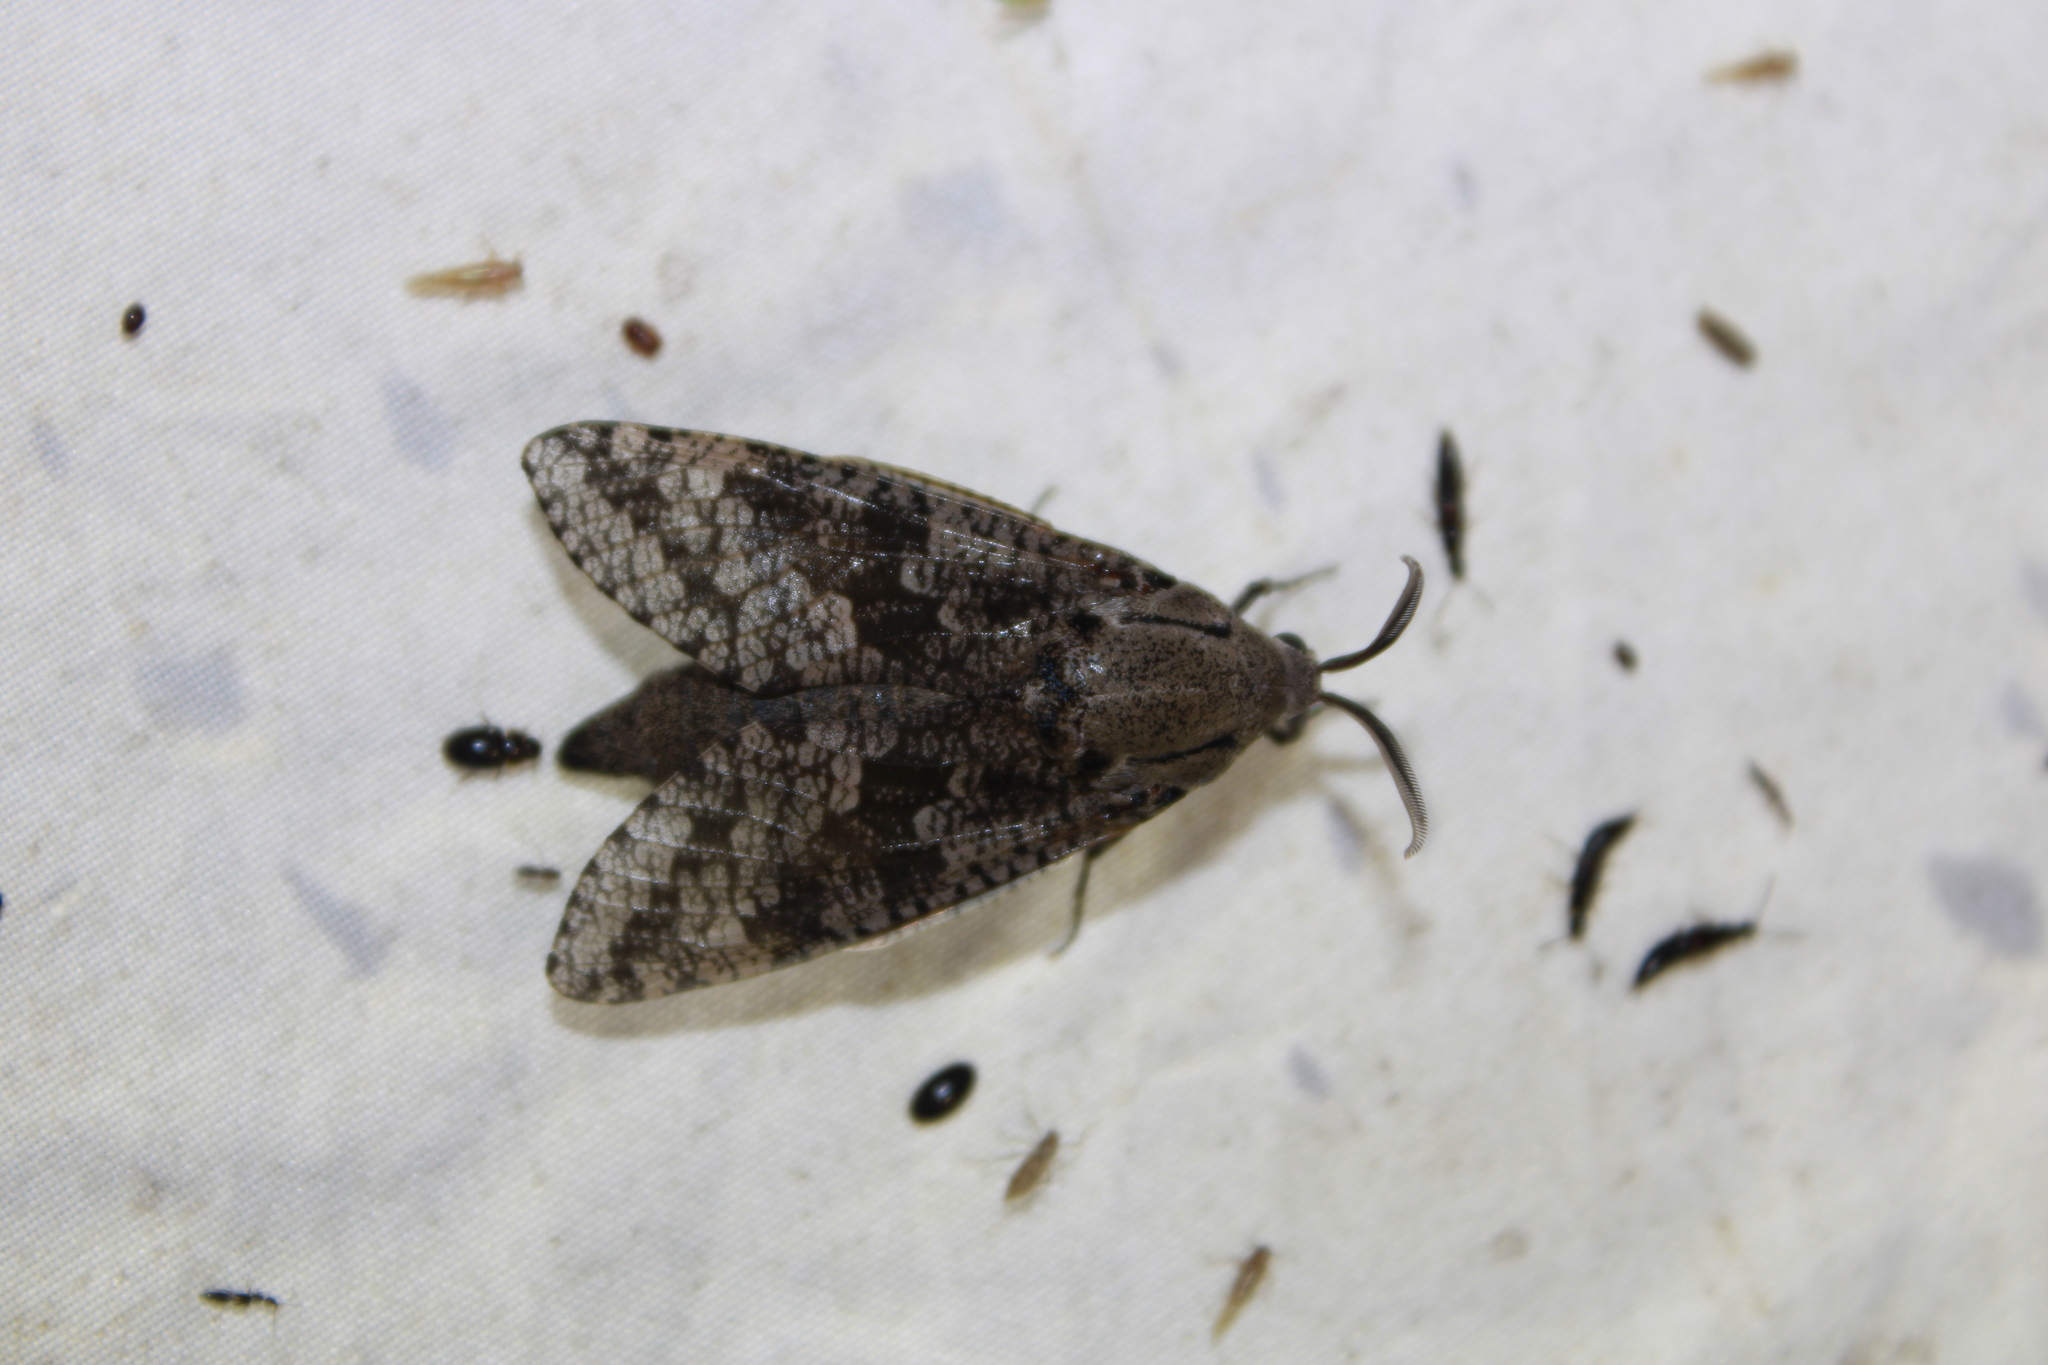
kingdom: Animalia
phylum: Arthropoda
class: Insecta
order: Lepidoptera
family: Cossidae
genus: Prionoxystus
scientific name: Prionoxystus robiniae
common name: Carpenterworm
